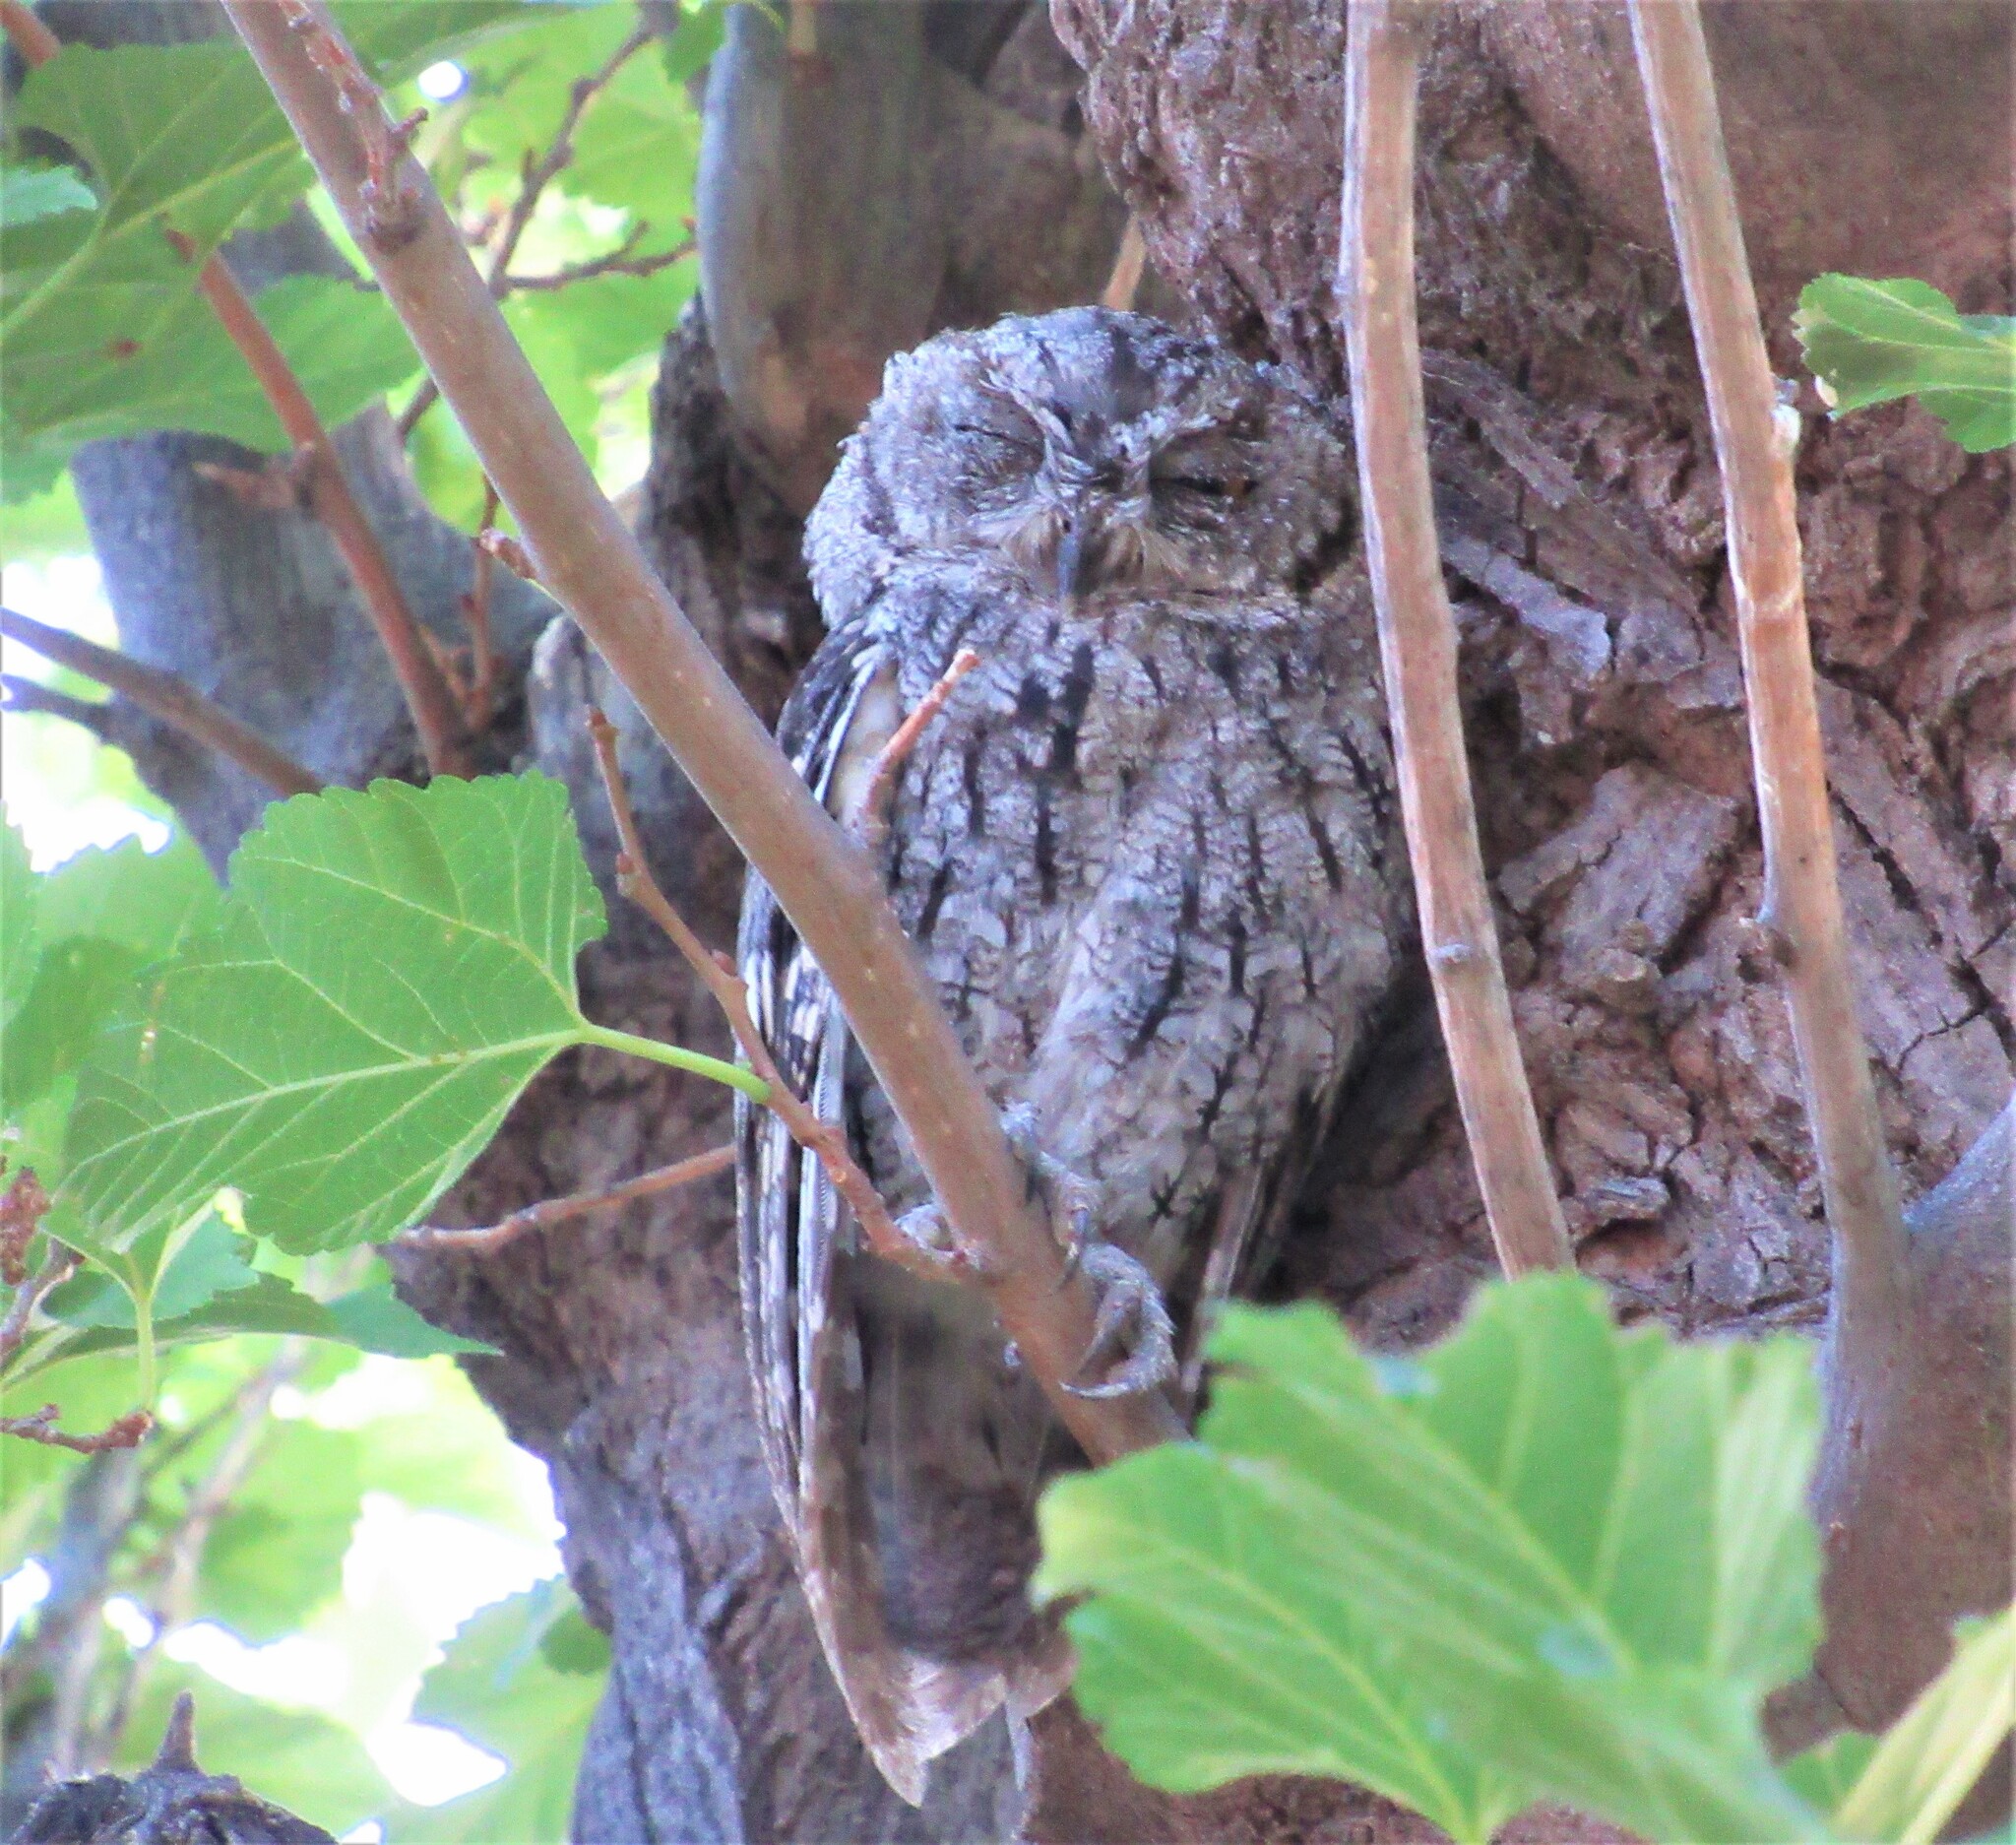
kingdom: Animalia
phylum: Chordata
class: Aves
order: Strigiformes
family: Strigidae
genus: Megascops
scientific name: Megascops kennicottii
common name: Western screech-owl
